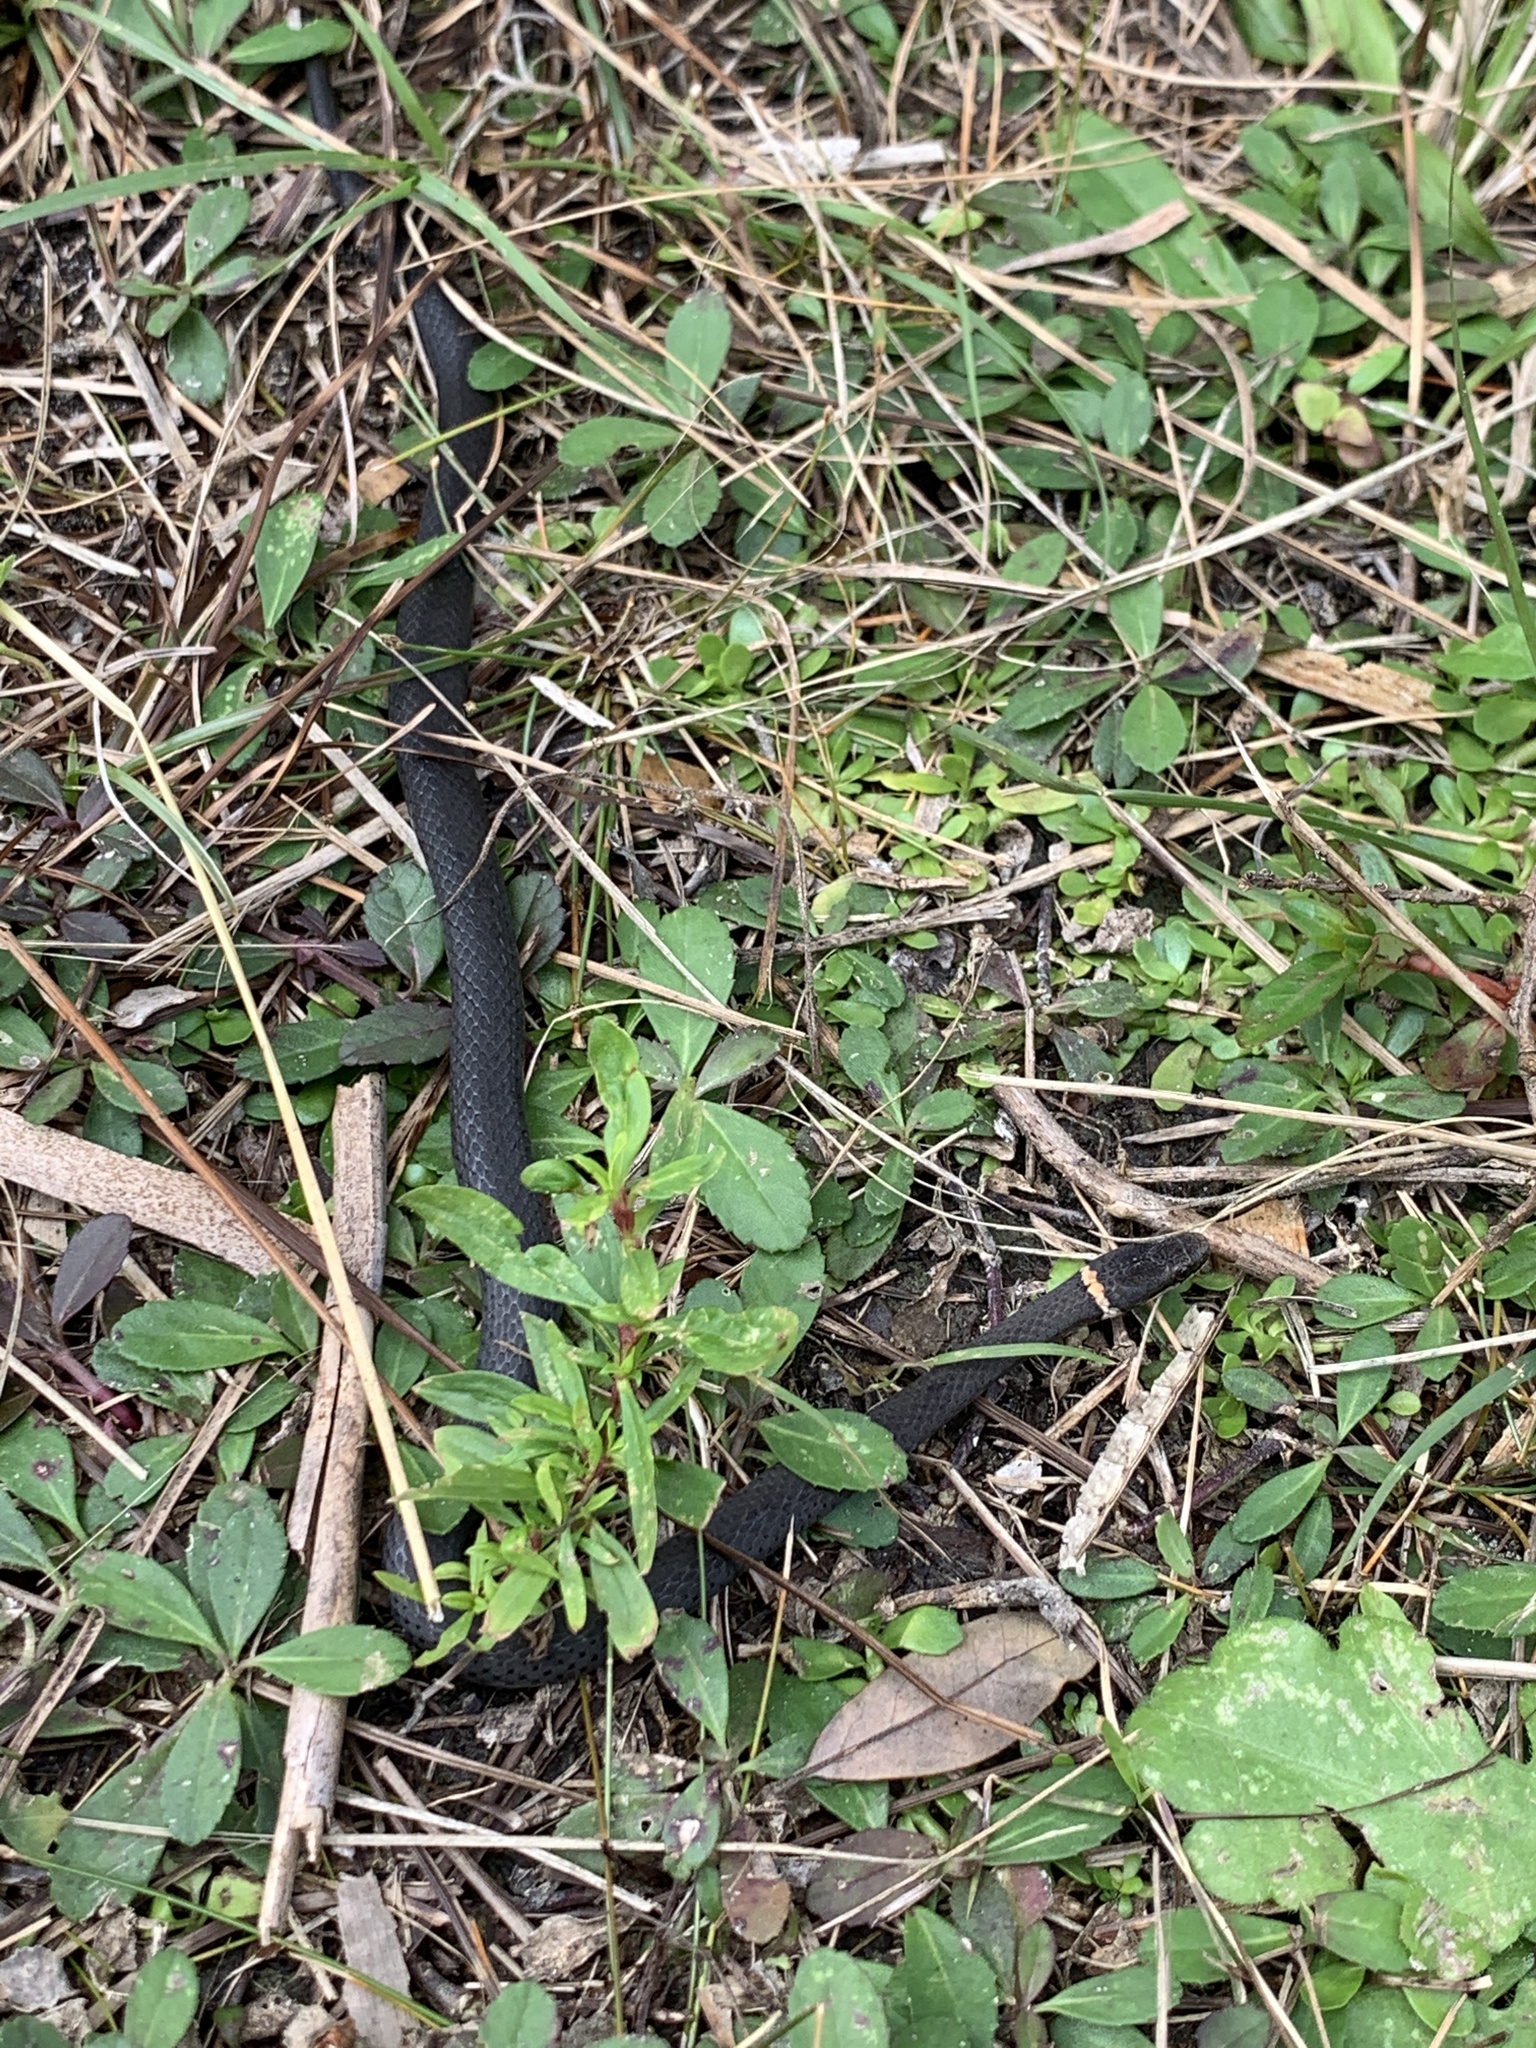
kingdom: Animalia
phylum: Chordata
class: Squamata
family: Colubridae
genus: Diadophis
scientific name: Diadophis punctatus
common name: Ringneck snake
